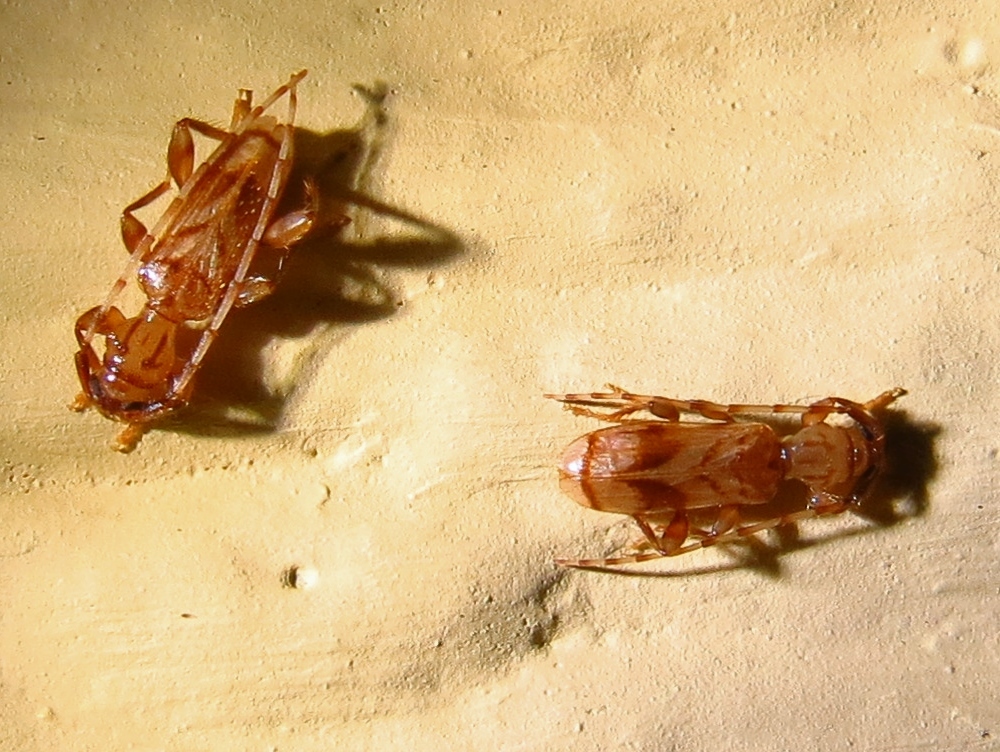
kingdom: Animalia
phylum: Arthropoda
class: Insecta
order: Coleoptera
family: Cerambycidae
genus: Obrium
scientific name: Obrium maculatum
